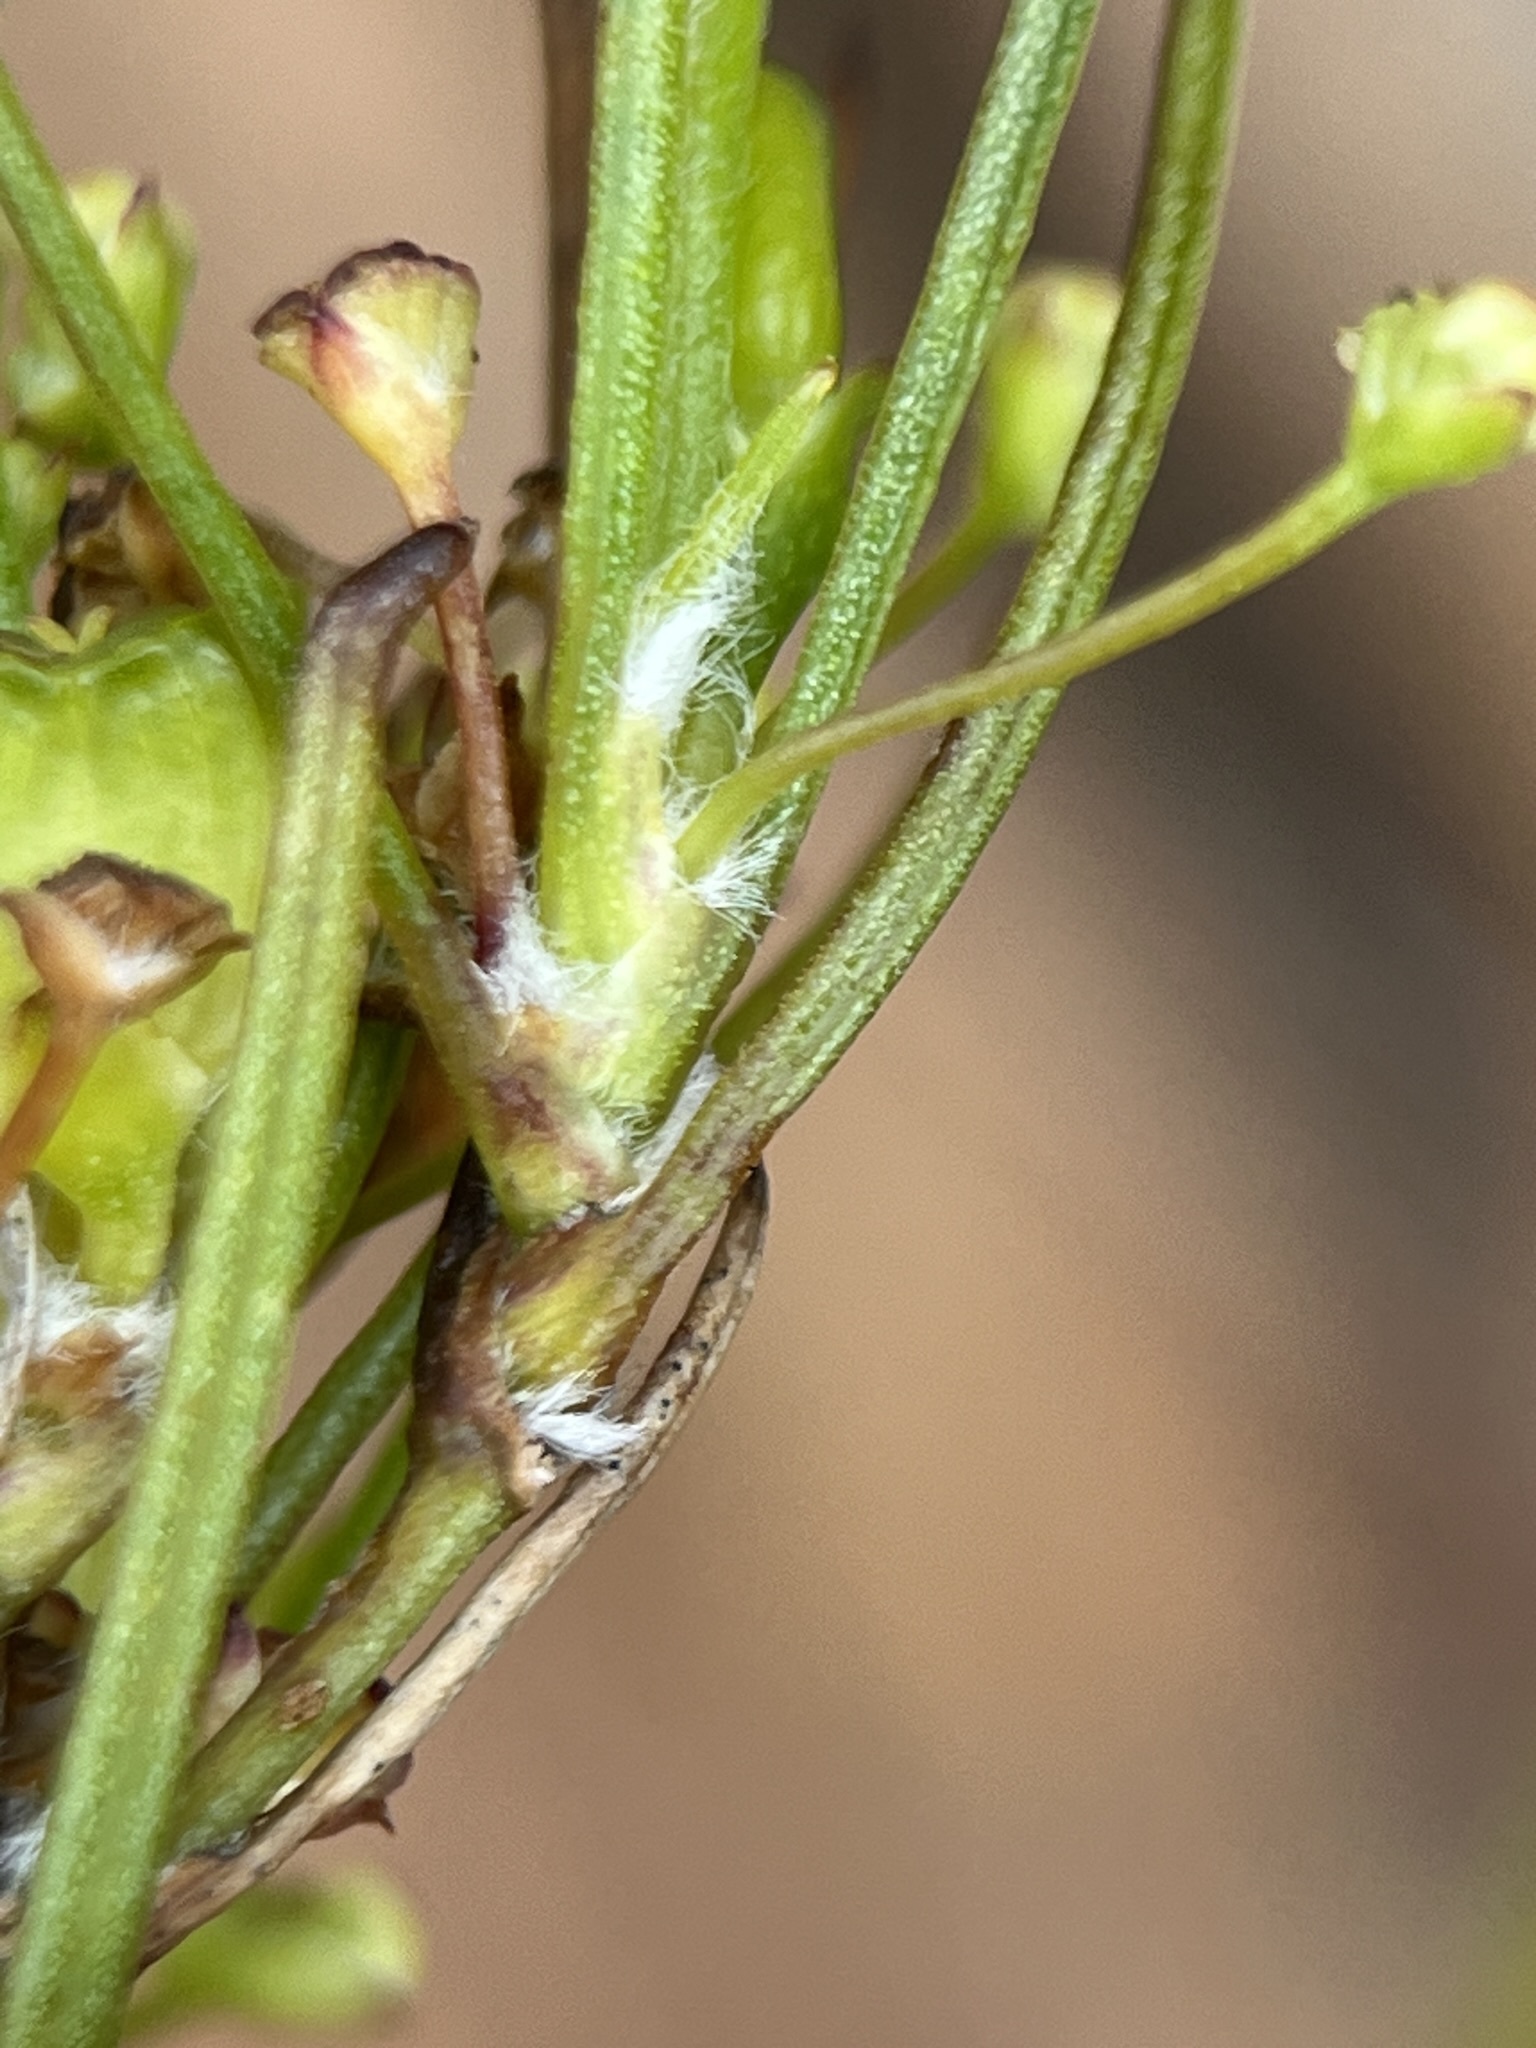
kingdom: Plantae
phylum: Tracheophyta
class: Magnoliopsida
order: Apiales
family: Apiaceae
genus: Centella
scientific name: Centella stenophylla
